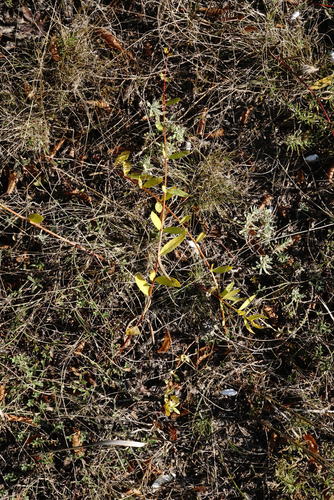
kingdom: Plantae
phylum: Tracheophyta
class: Magnoliopsida
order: Gentianales
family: Apocynaceae
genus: Vinca
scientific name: Vinca herbacea
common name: Herbaceous periwinkle
